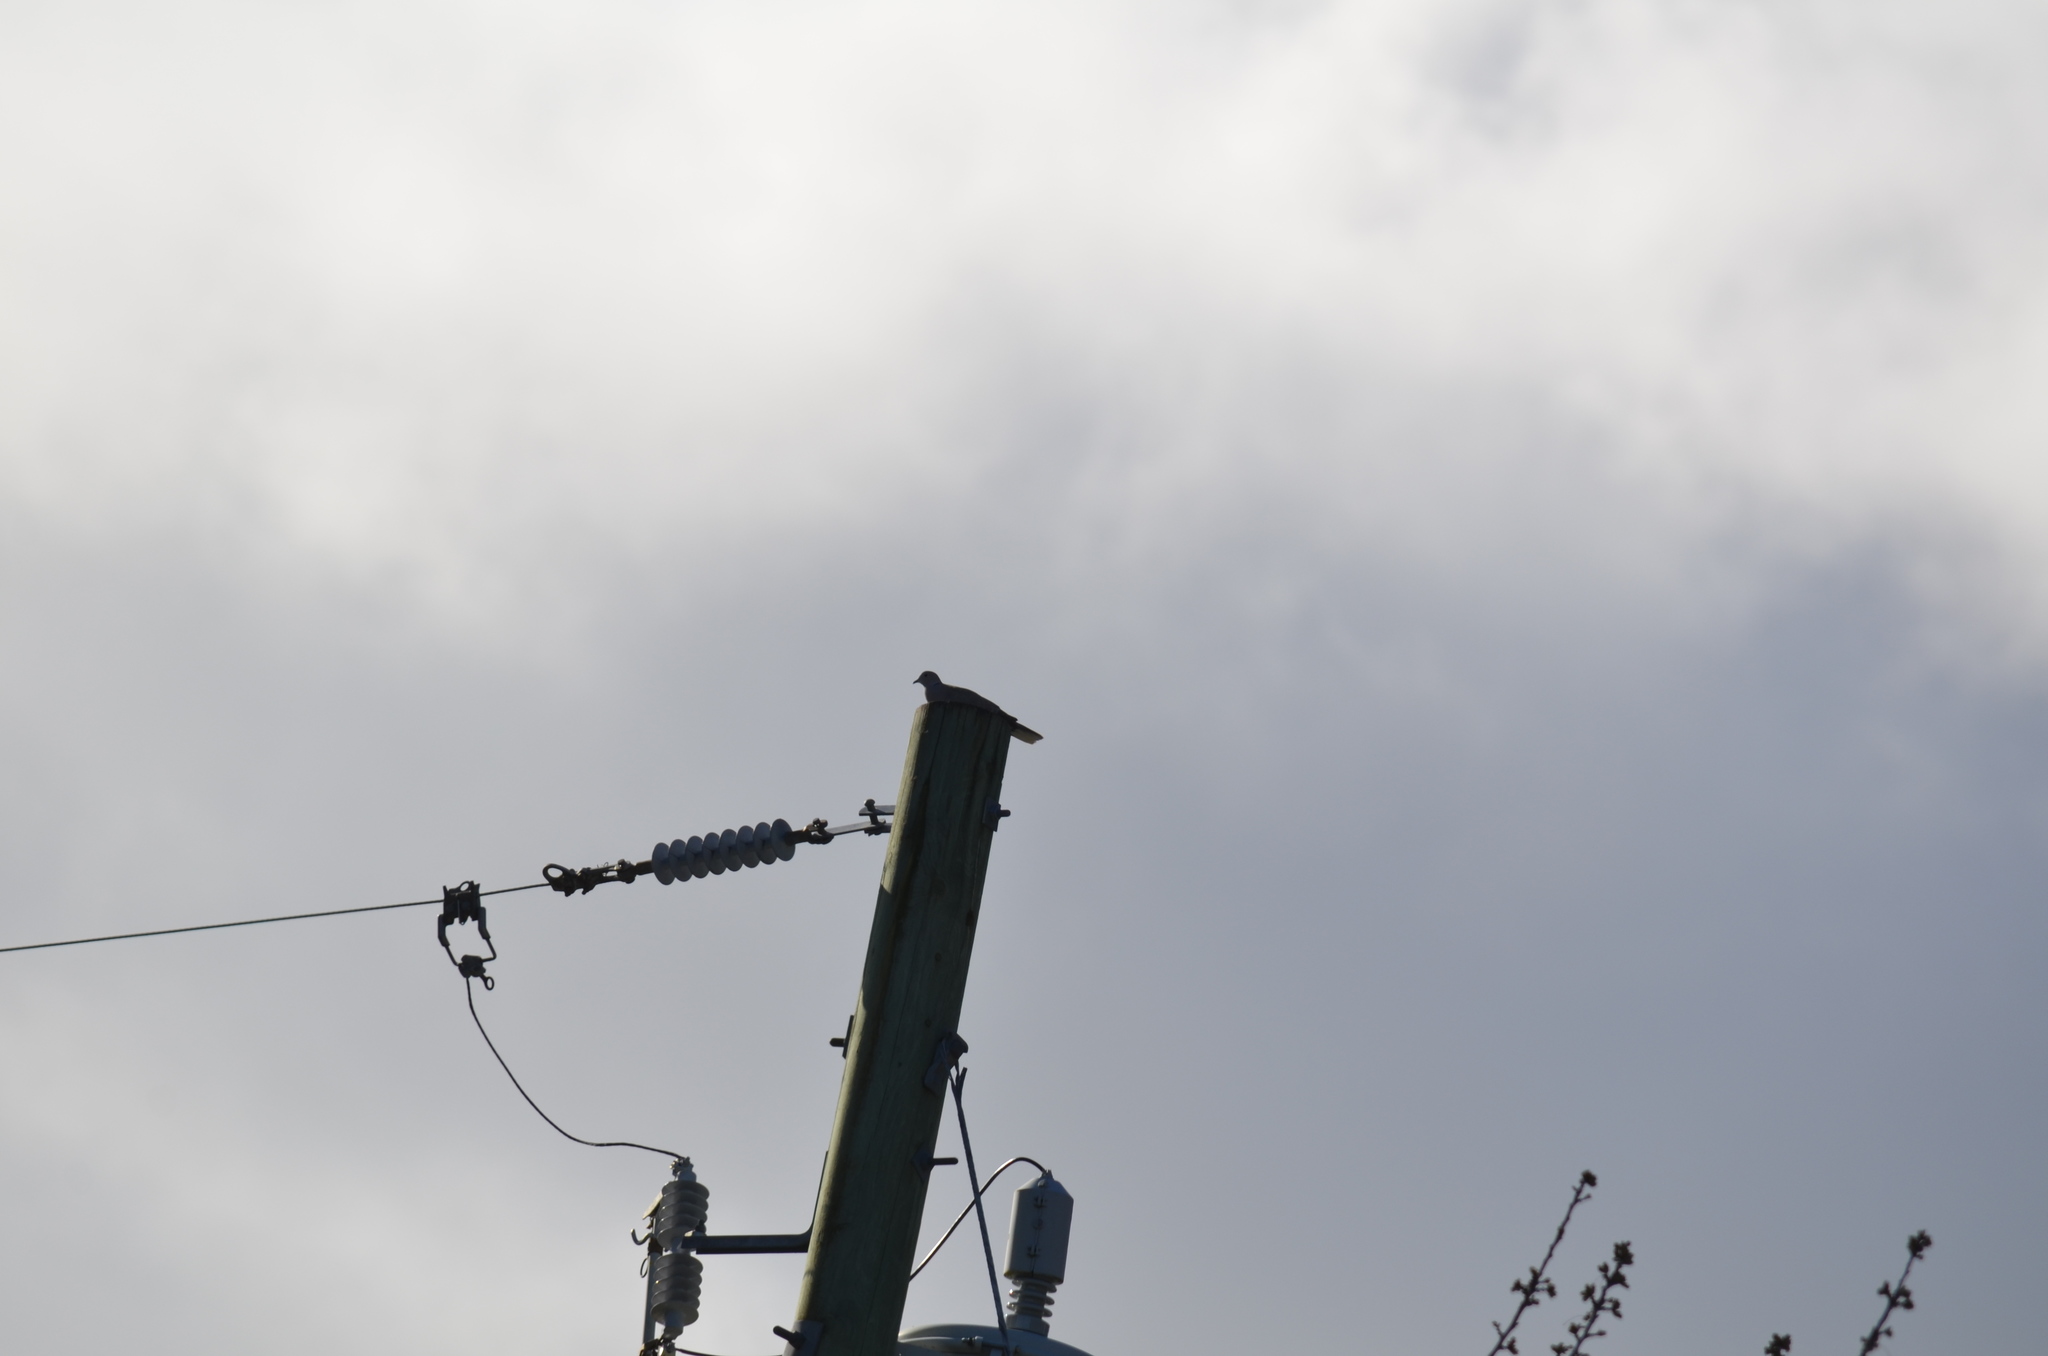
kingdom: Animalia
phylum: Chordata
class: Aves
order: Columbiformes
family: Columbidae
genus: Streptopelia
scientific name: Streptopelia decaocto
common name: Eurasian collared dove
